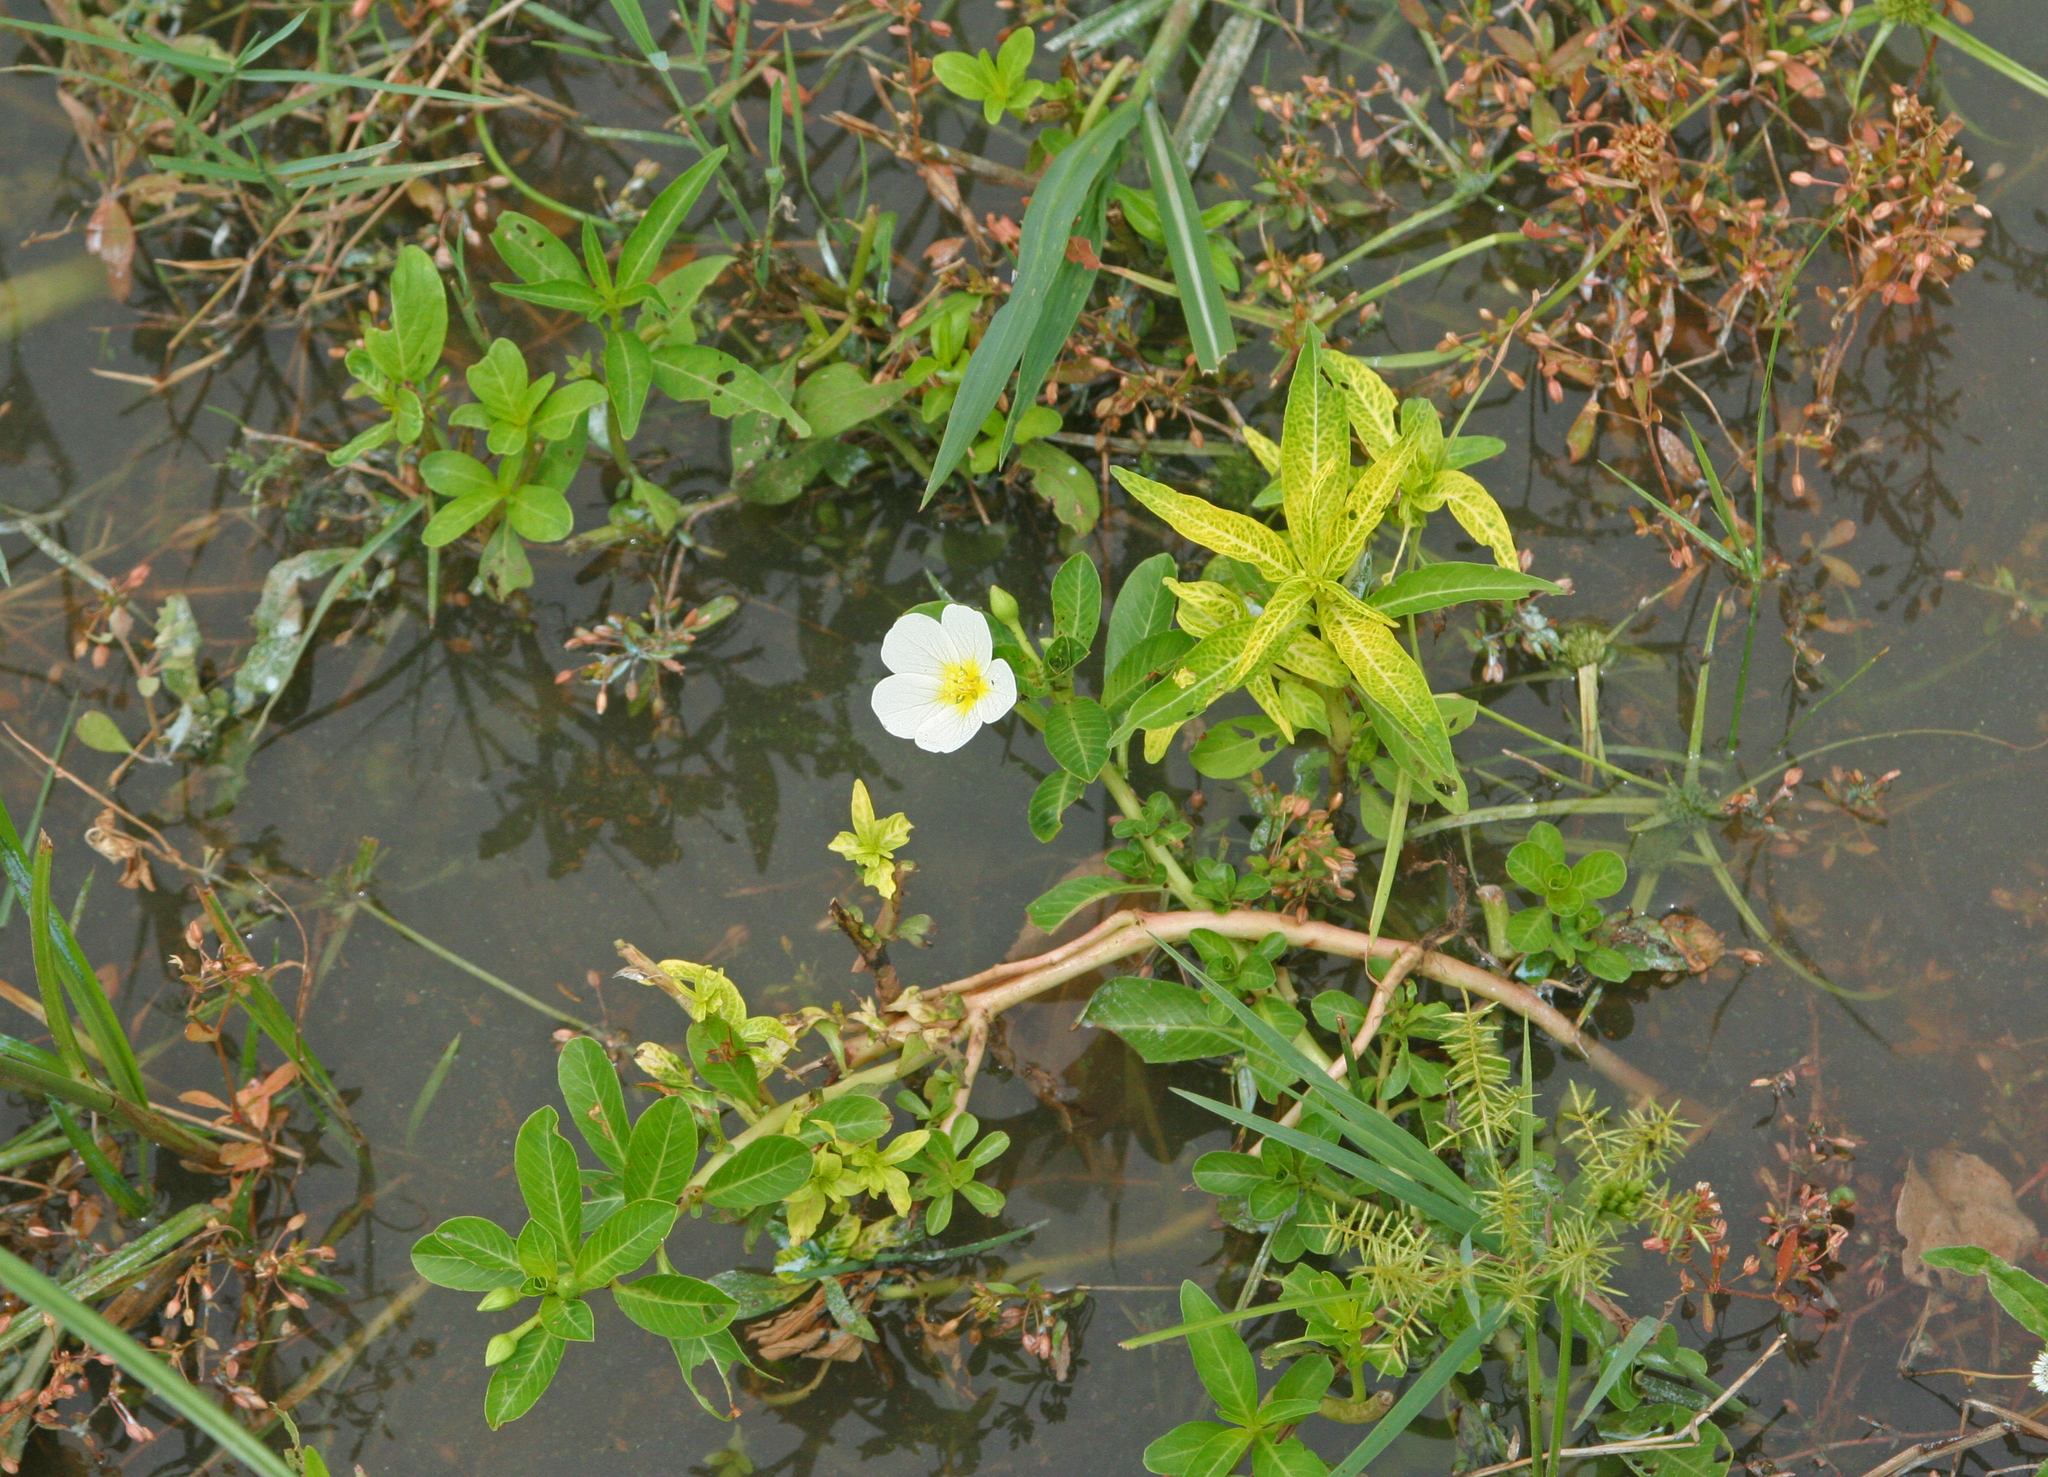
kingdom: Plantae
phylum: Tracheophyta
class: Magnoliopsida
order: Myrtales
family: Onagraceae
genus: Ludwigia
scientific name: Ludwigia adscendens
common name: Creeping water primrose
